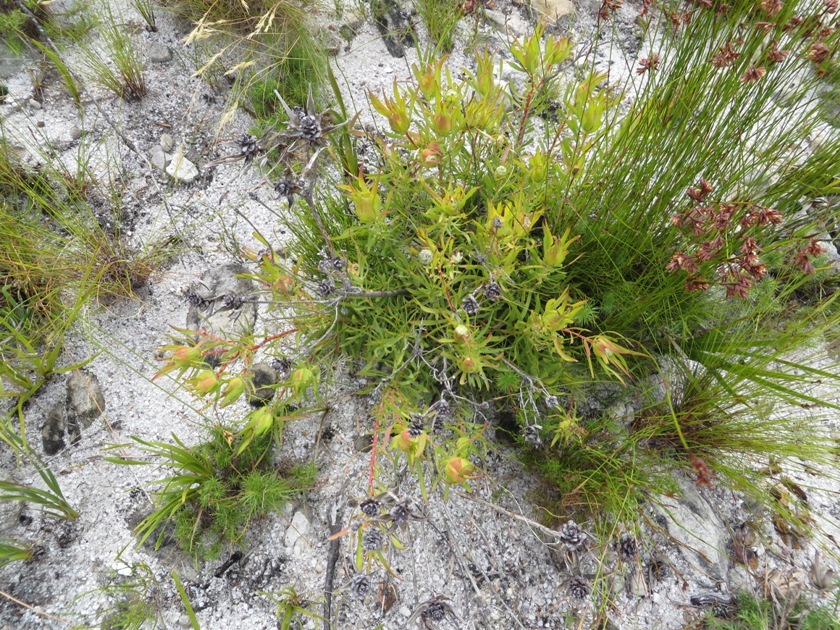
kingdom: Plantae
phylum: Tracheophyta
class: Magnoliopsida
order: Proteales
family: Proteaceae
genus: Leucadendron
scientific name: Leucadendron salignum
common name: Common sunshine conebush
